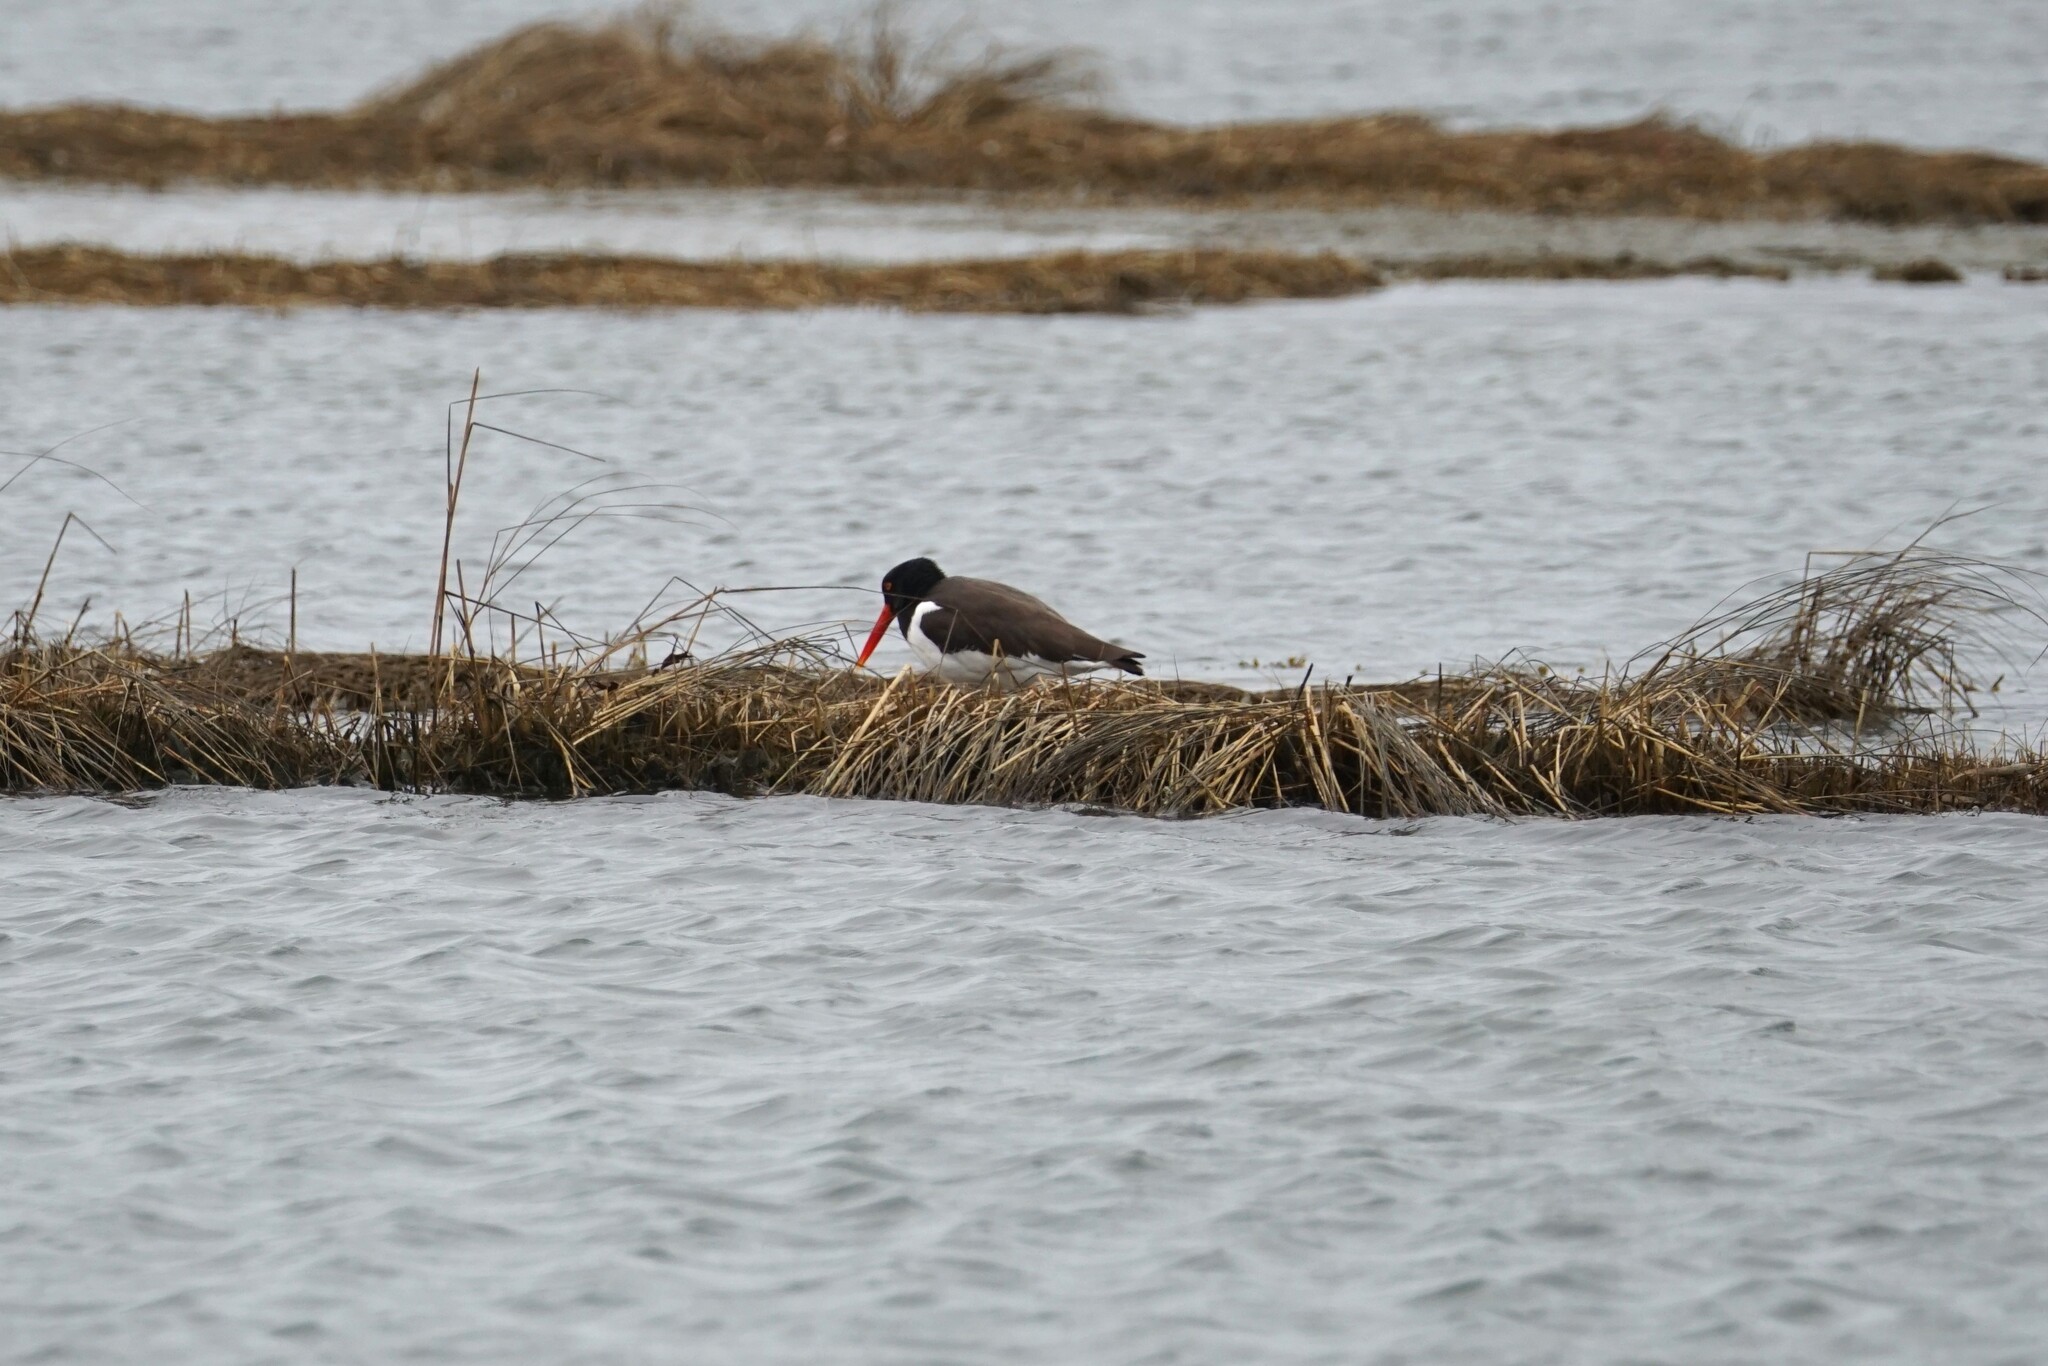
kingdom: Animalia
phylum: Chordata
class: Aves
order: Charadriiformes
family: Haematopodidae
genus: Haematopus
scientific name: Haematopus palliatus
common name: American oystercatcher
